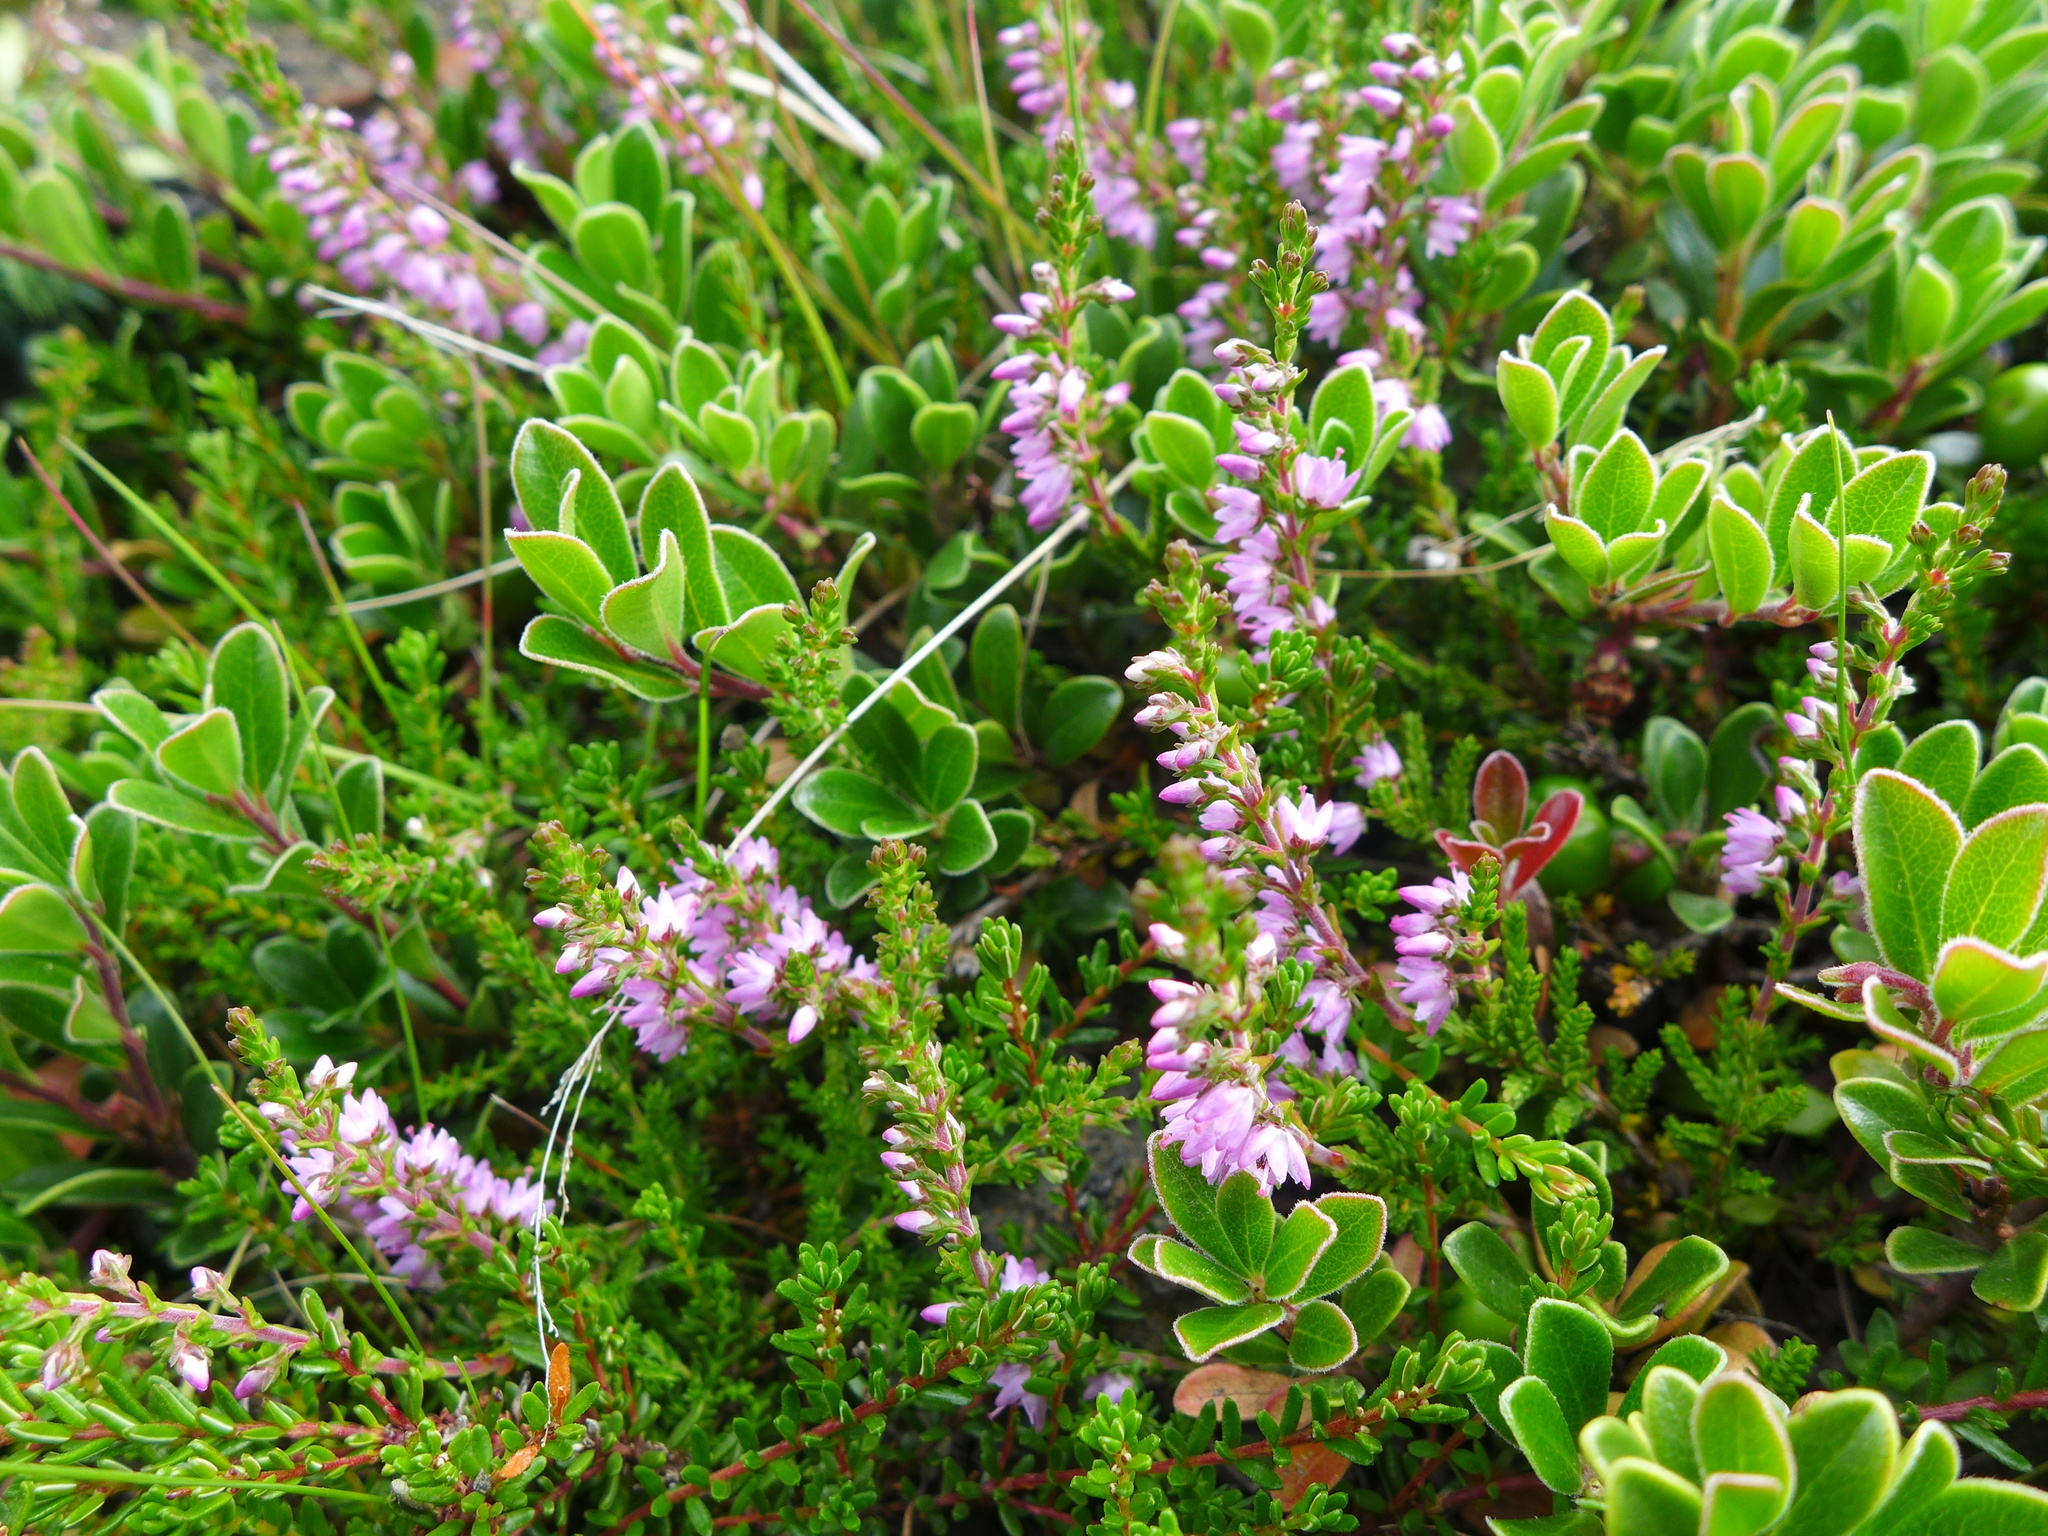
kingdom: Plantae
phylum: Tracheophyta
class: Magnoliopsida
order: Ericales
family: Ericaceae
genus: Calluna
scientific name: Calluna vulgaris
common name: Heather
